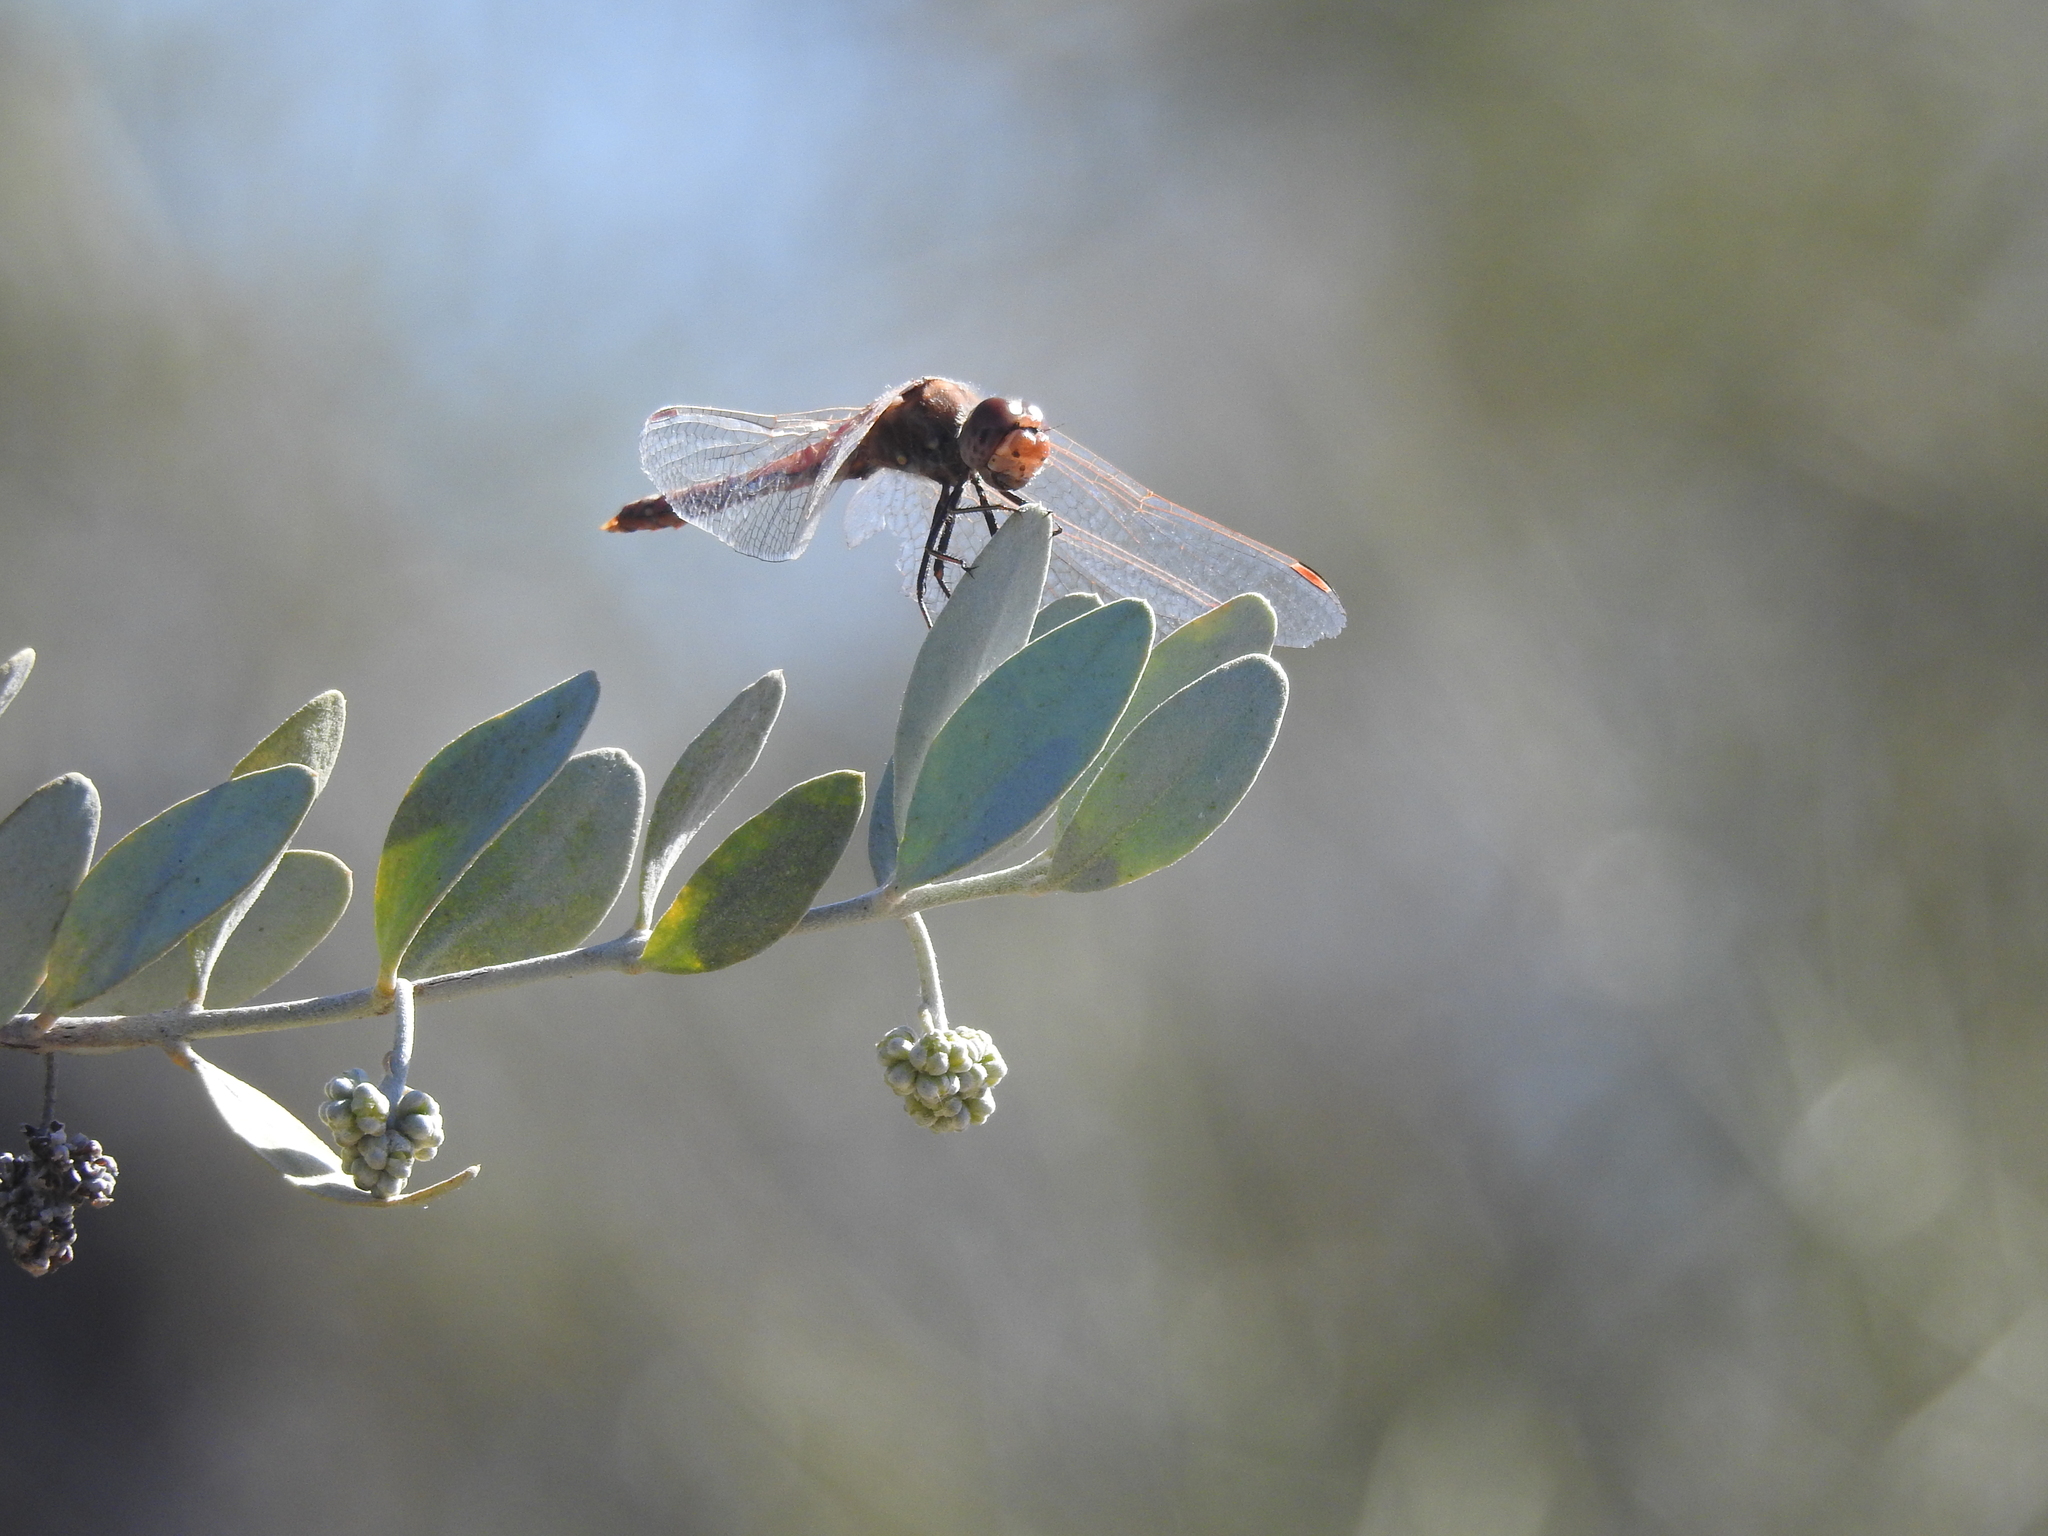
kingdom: Animalia
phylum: Arthropoda
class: Insecta
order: Odonata
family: Libellulidae
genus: Sympetrum
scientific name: Sympetrum corruptum
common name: Variegated meadowhawk
